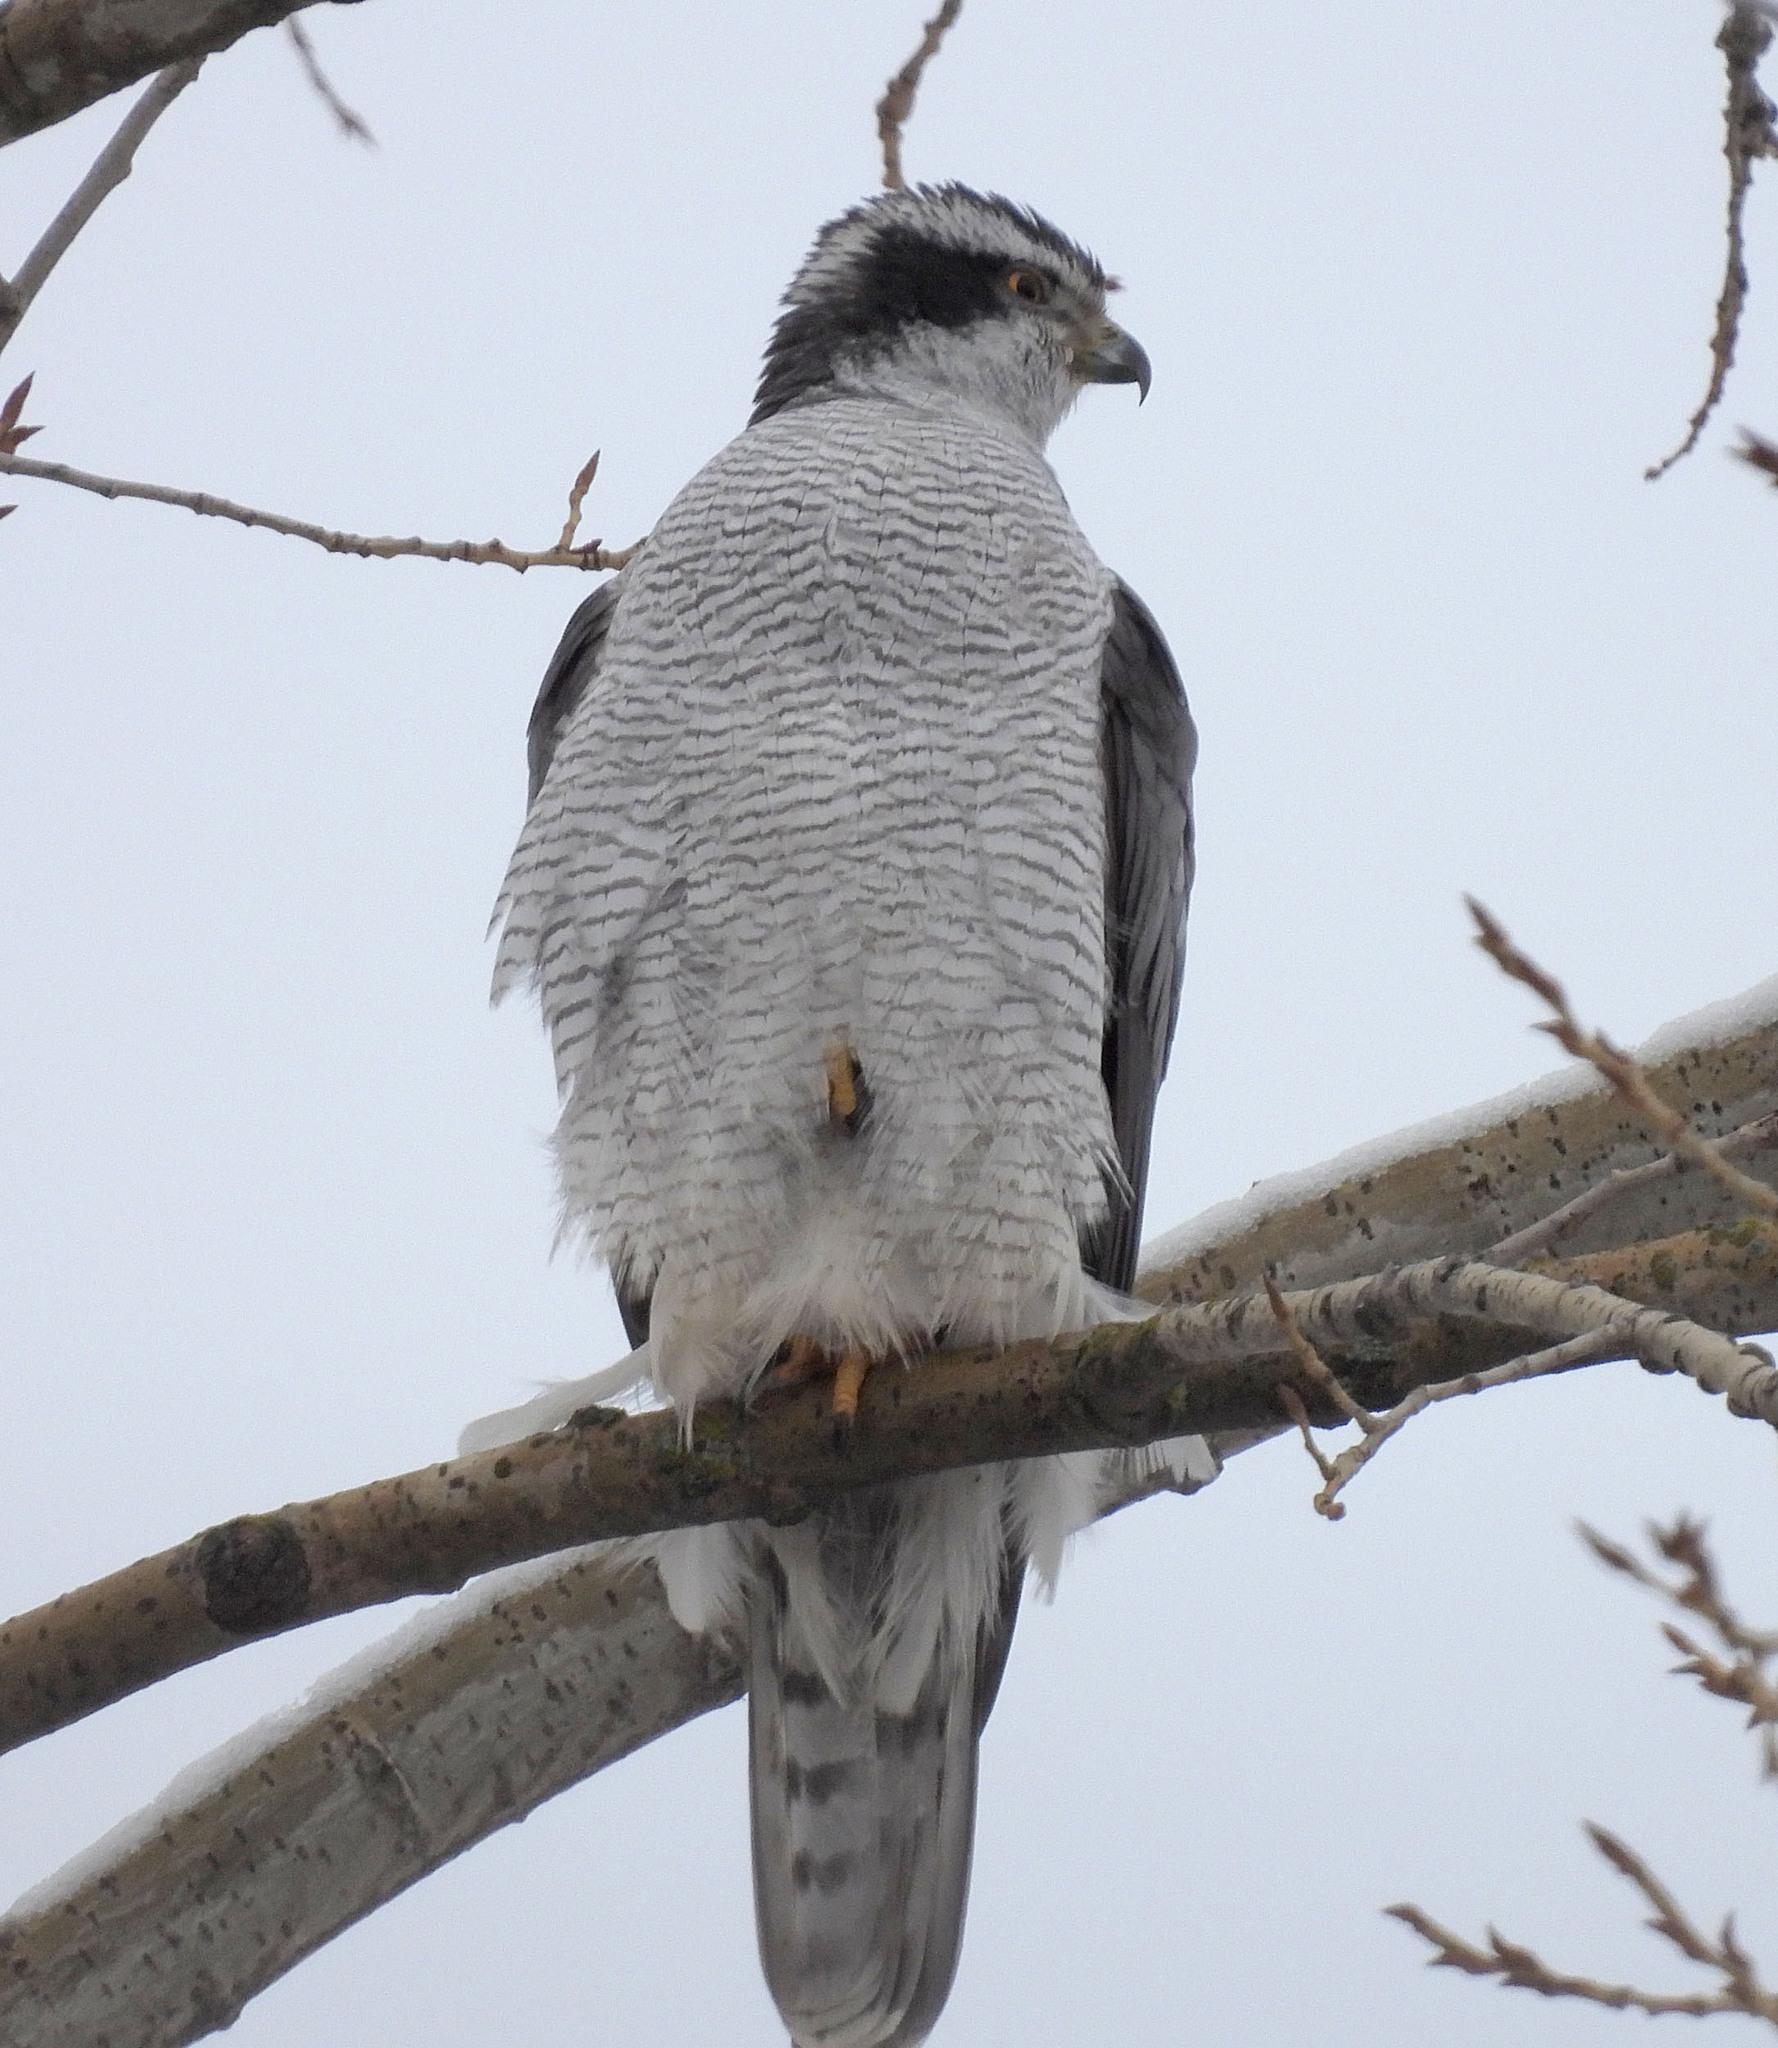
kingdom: Animalia
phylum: Chordata
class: Aves
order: Accipitriformes
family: Accipitridae
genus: Accipiter
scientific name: Accipiter gentilis
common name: Northern goshawk
